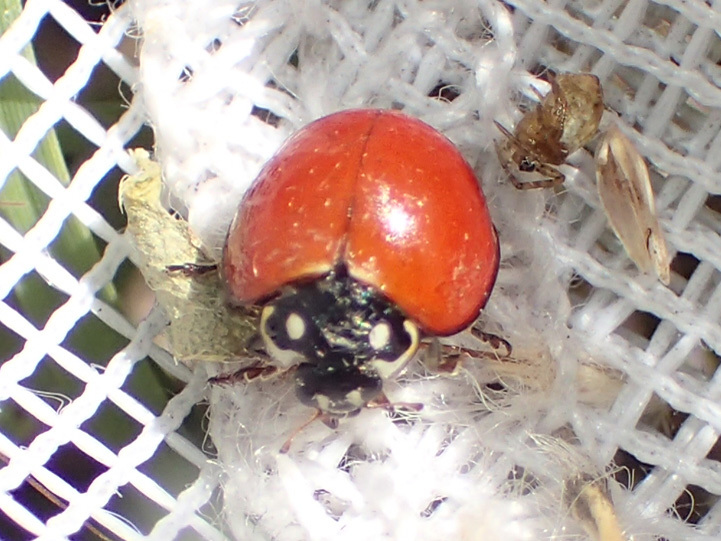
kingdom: Animalia
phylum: Arthropoda
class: Insecta
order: Coleoptera
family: Coccinellidae
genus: Cycloneda
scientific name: Cycloneda sanguinea
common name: Ladybird beetle
